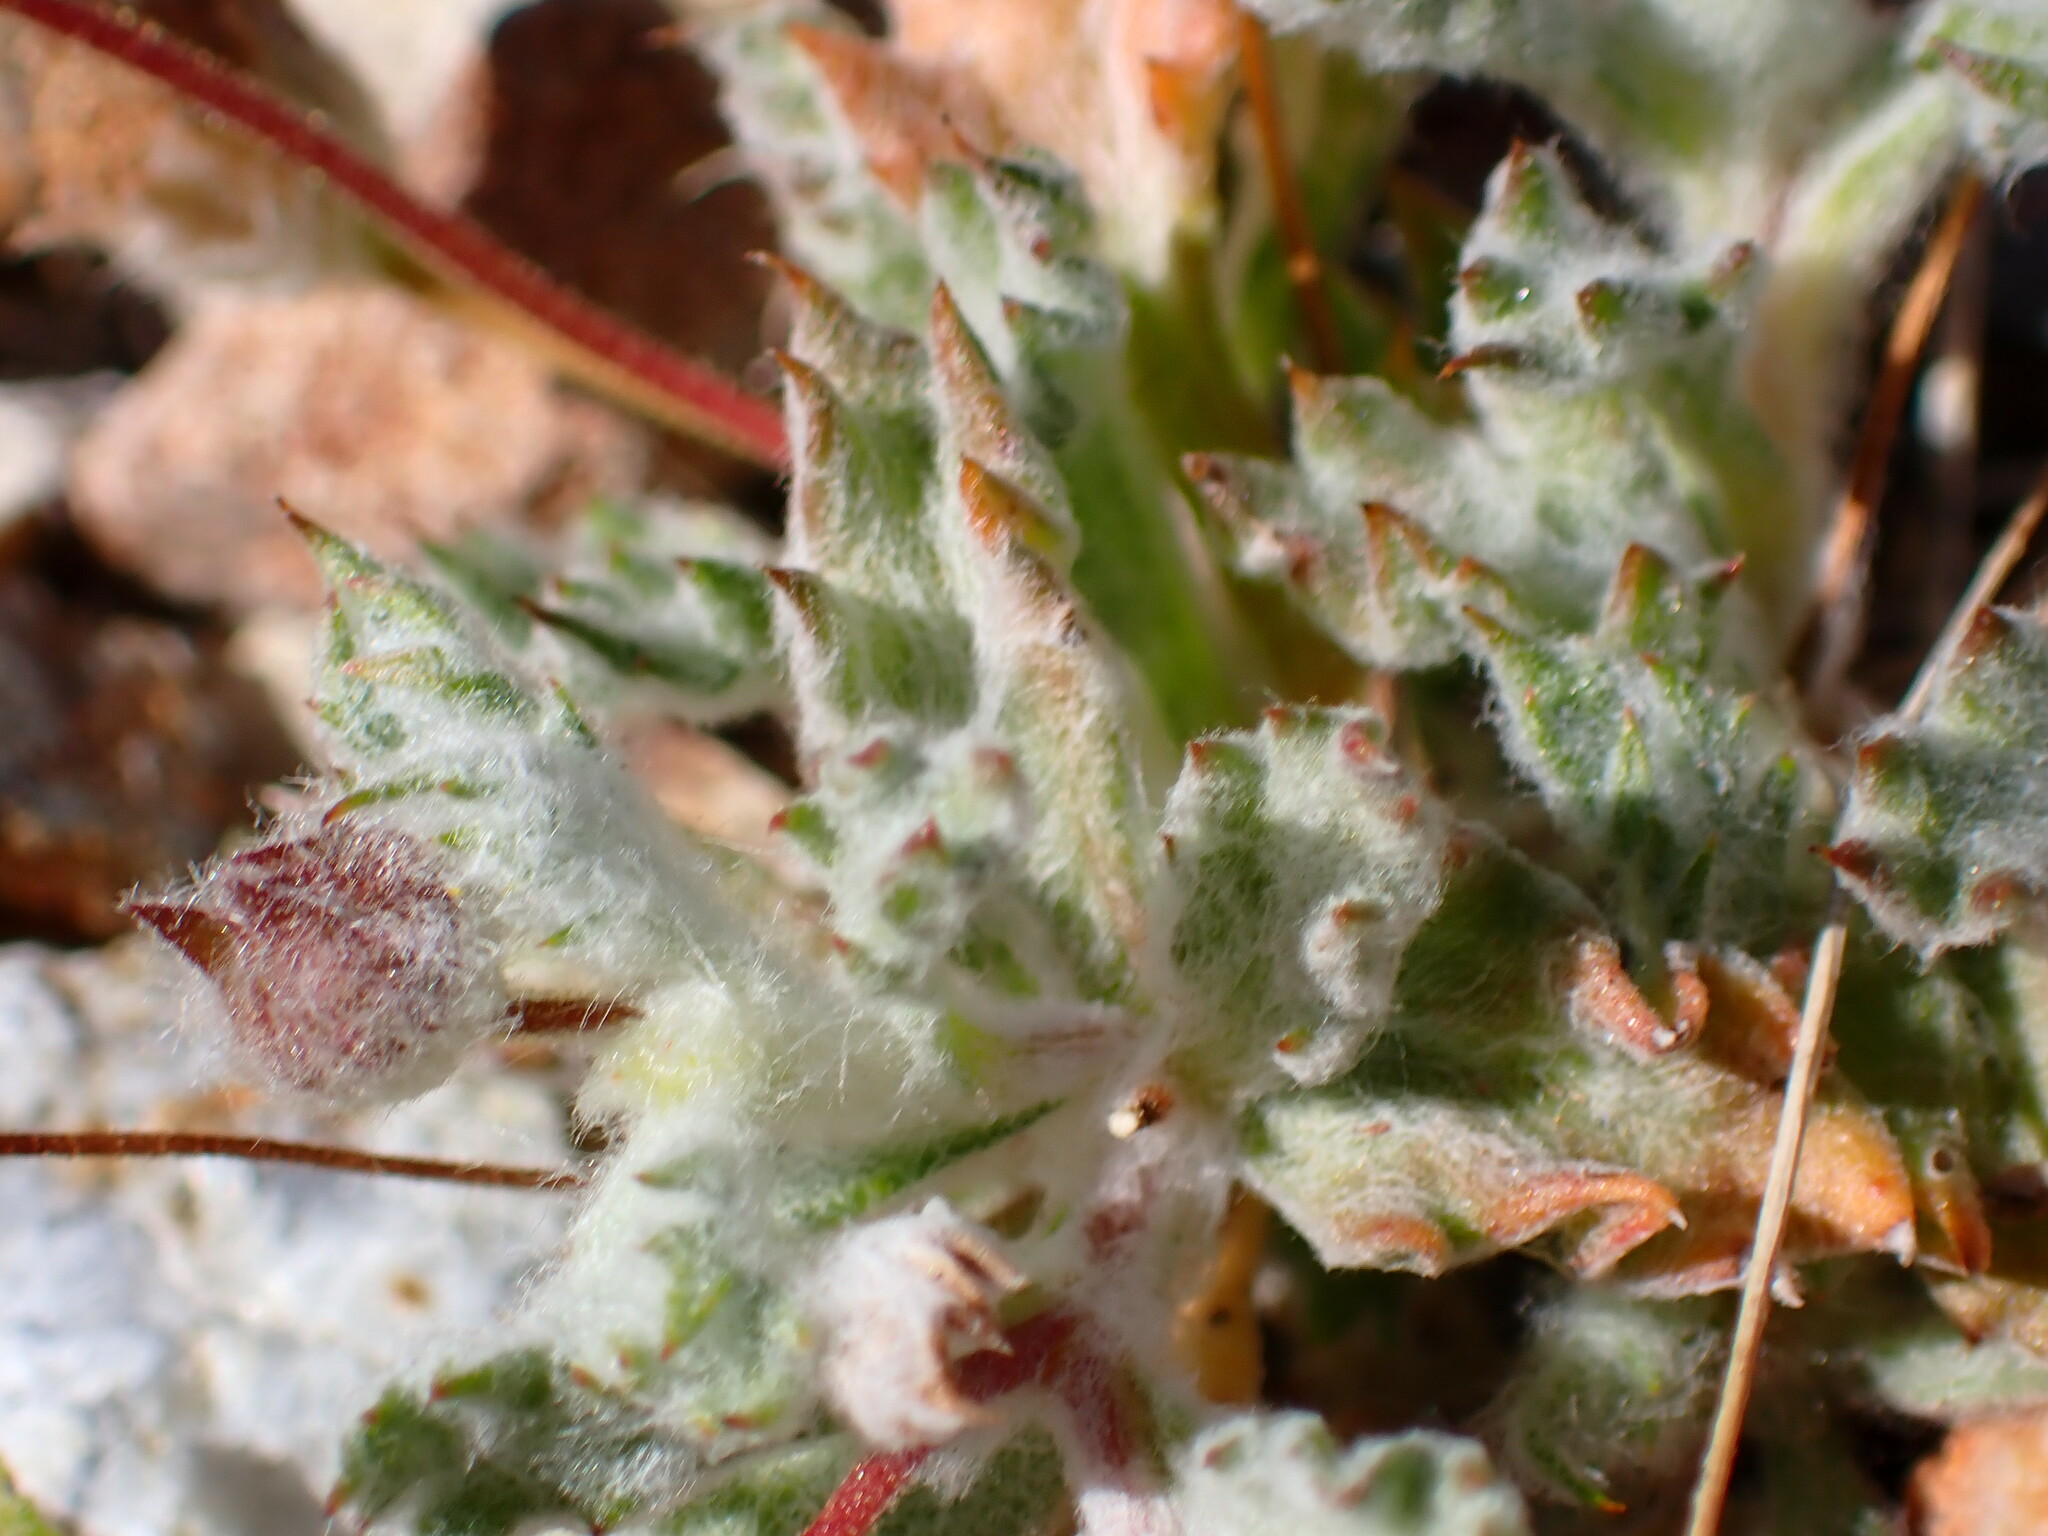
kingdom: Plantae
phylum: Tracheophyta
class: Magnoliopsida
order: Asterales
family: Asteraceae
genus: Trichoptilium
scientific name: Trichoptilium incisum
